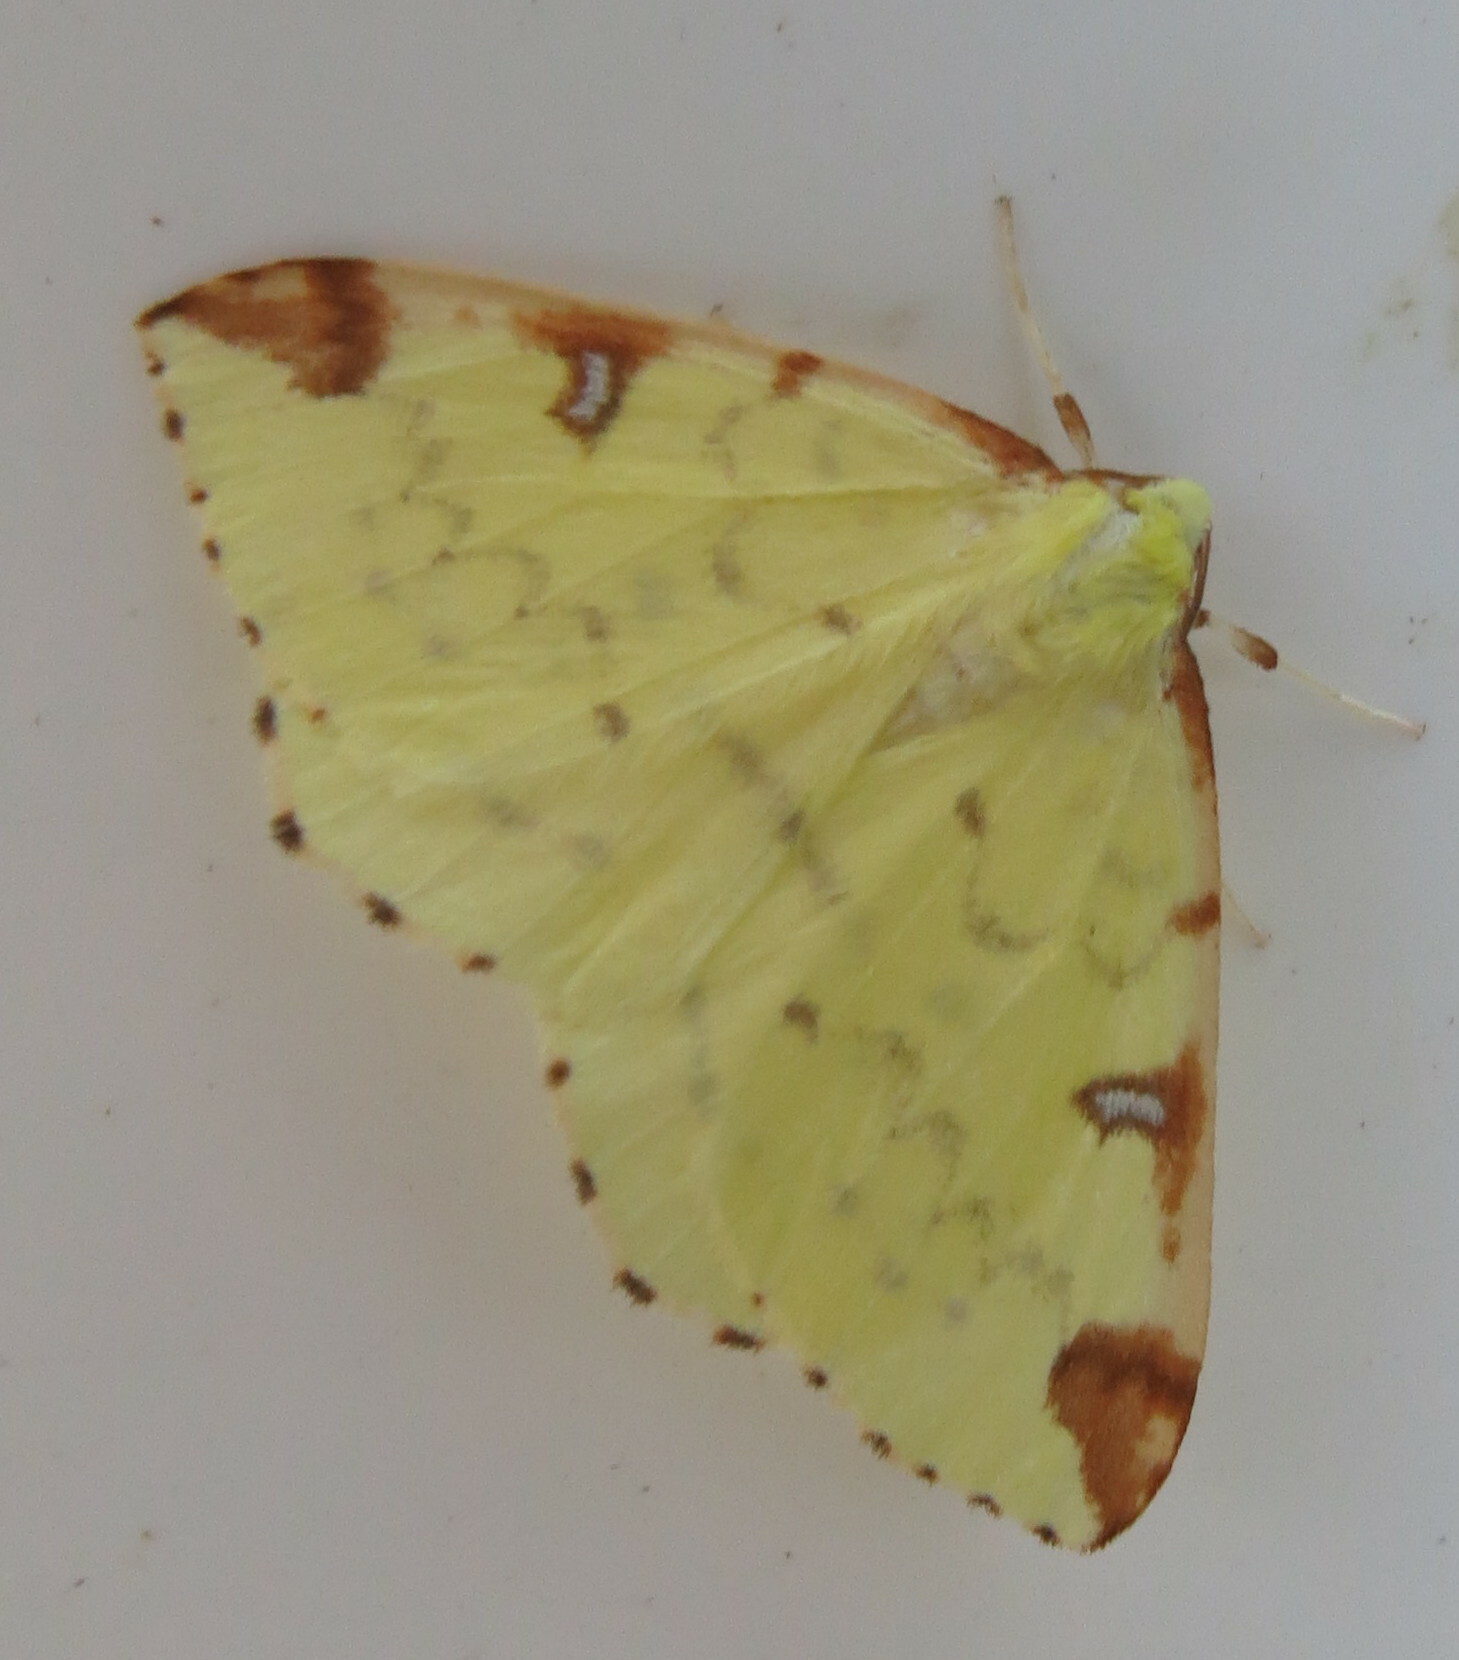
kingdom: Animalia
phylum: Arthropoda
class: Insecta
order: Lepidoptera
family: Geometridae
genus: Opisthograptis
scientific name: Opisthograptis luteolata
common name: Brimstone moth
